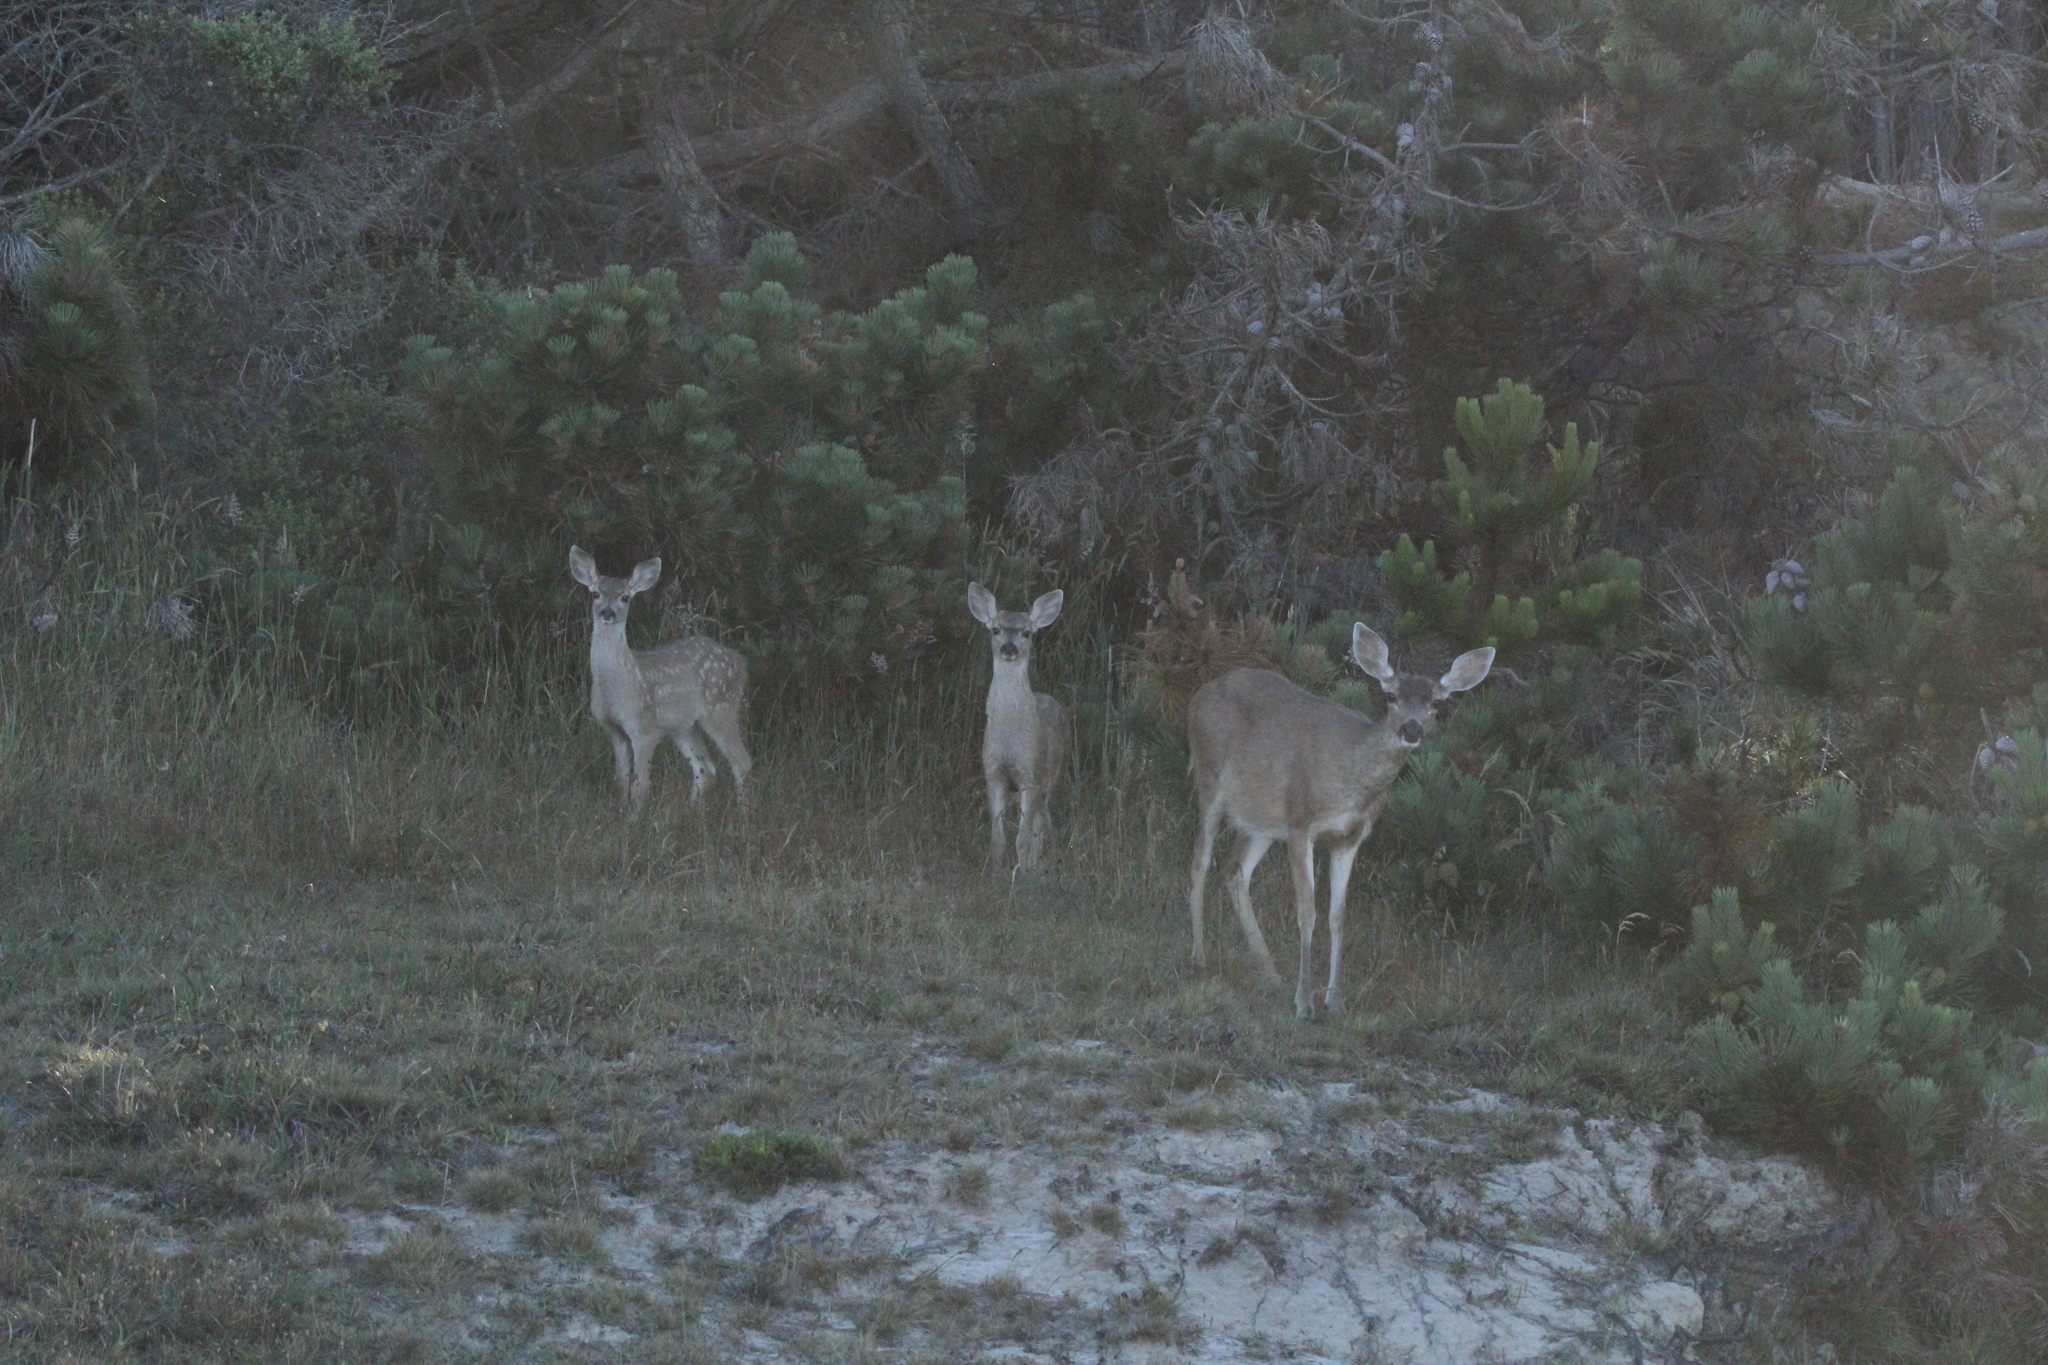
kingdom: Animalia
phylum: Chordata
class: Mammalia
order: Artiodactyla
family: Cervidae
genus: Odocoileus
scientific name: Odocoileus hemionus
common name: Mule deer
